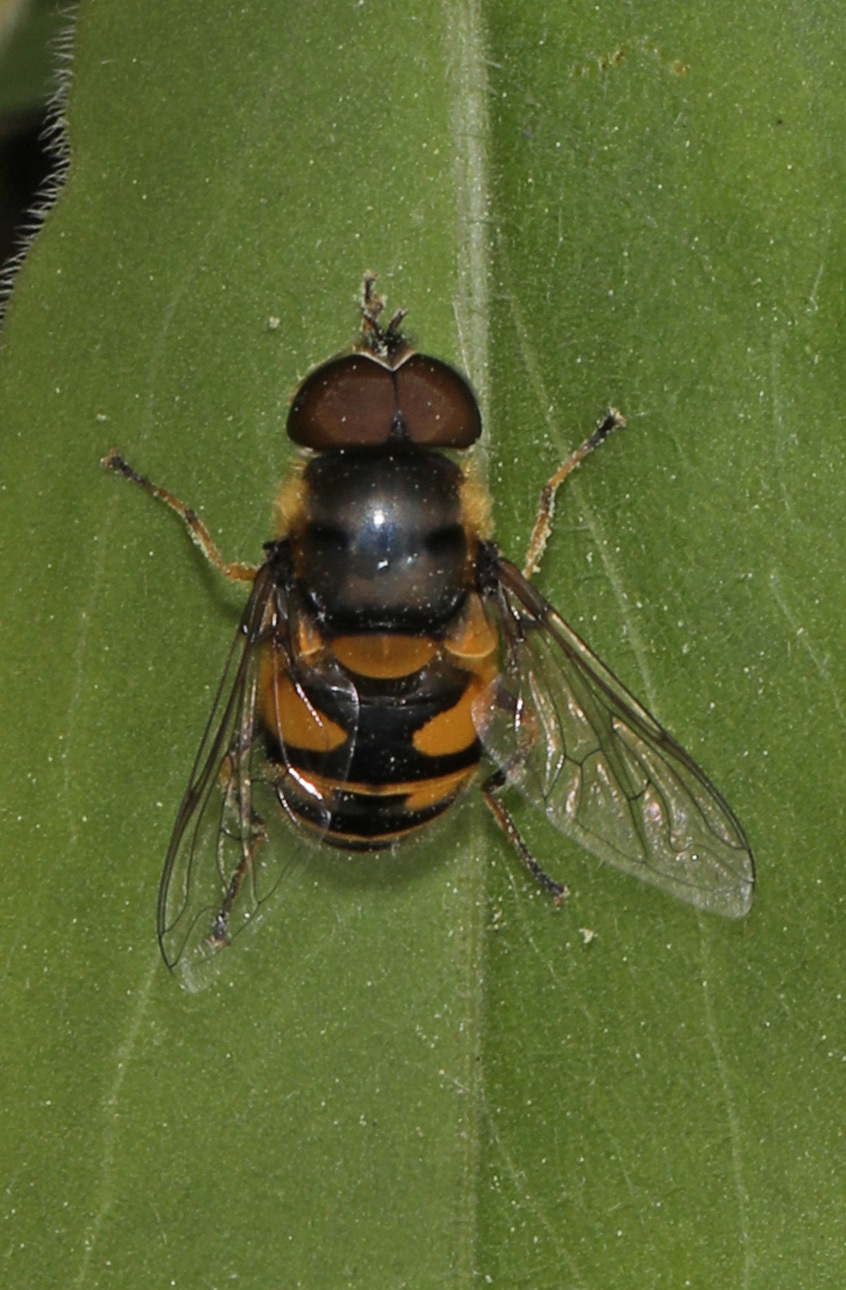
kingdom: Animalia
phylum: Arthropoda
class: Insecta
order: Diptera
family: Syrphidae
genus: Eristalis
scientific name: Eristalis transversa
